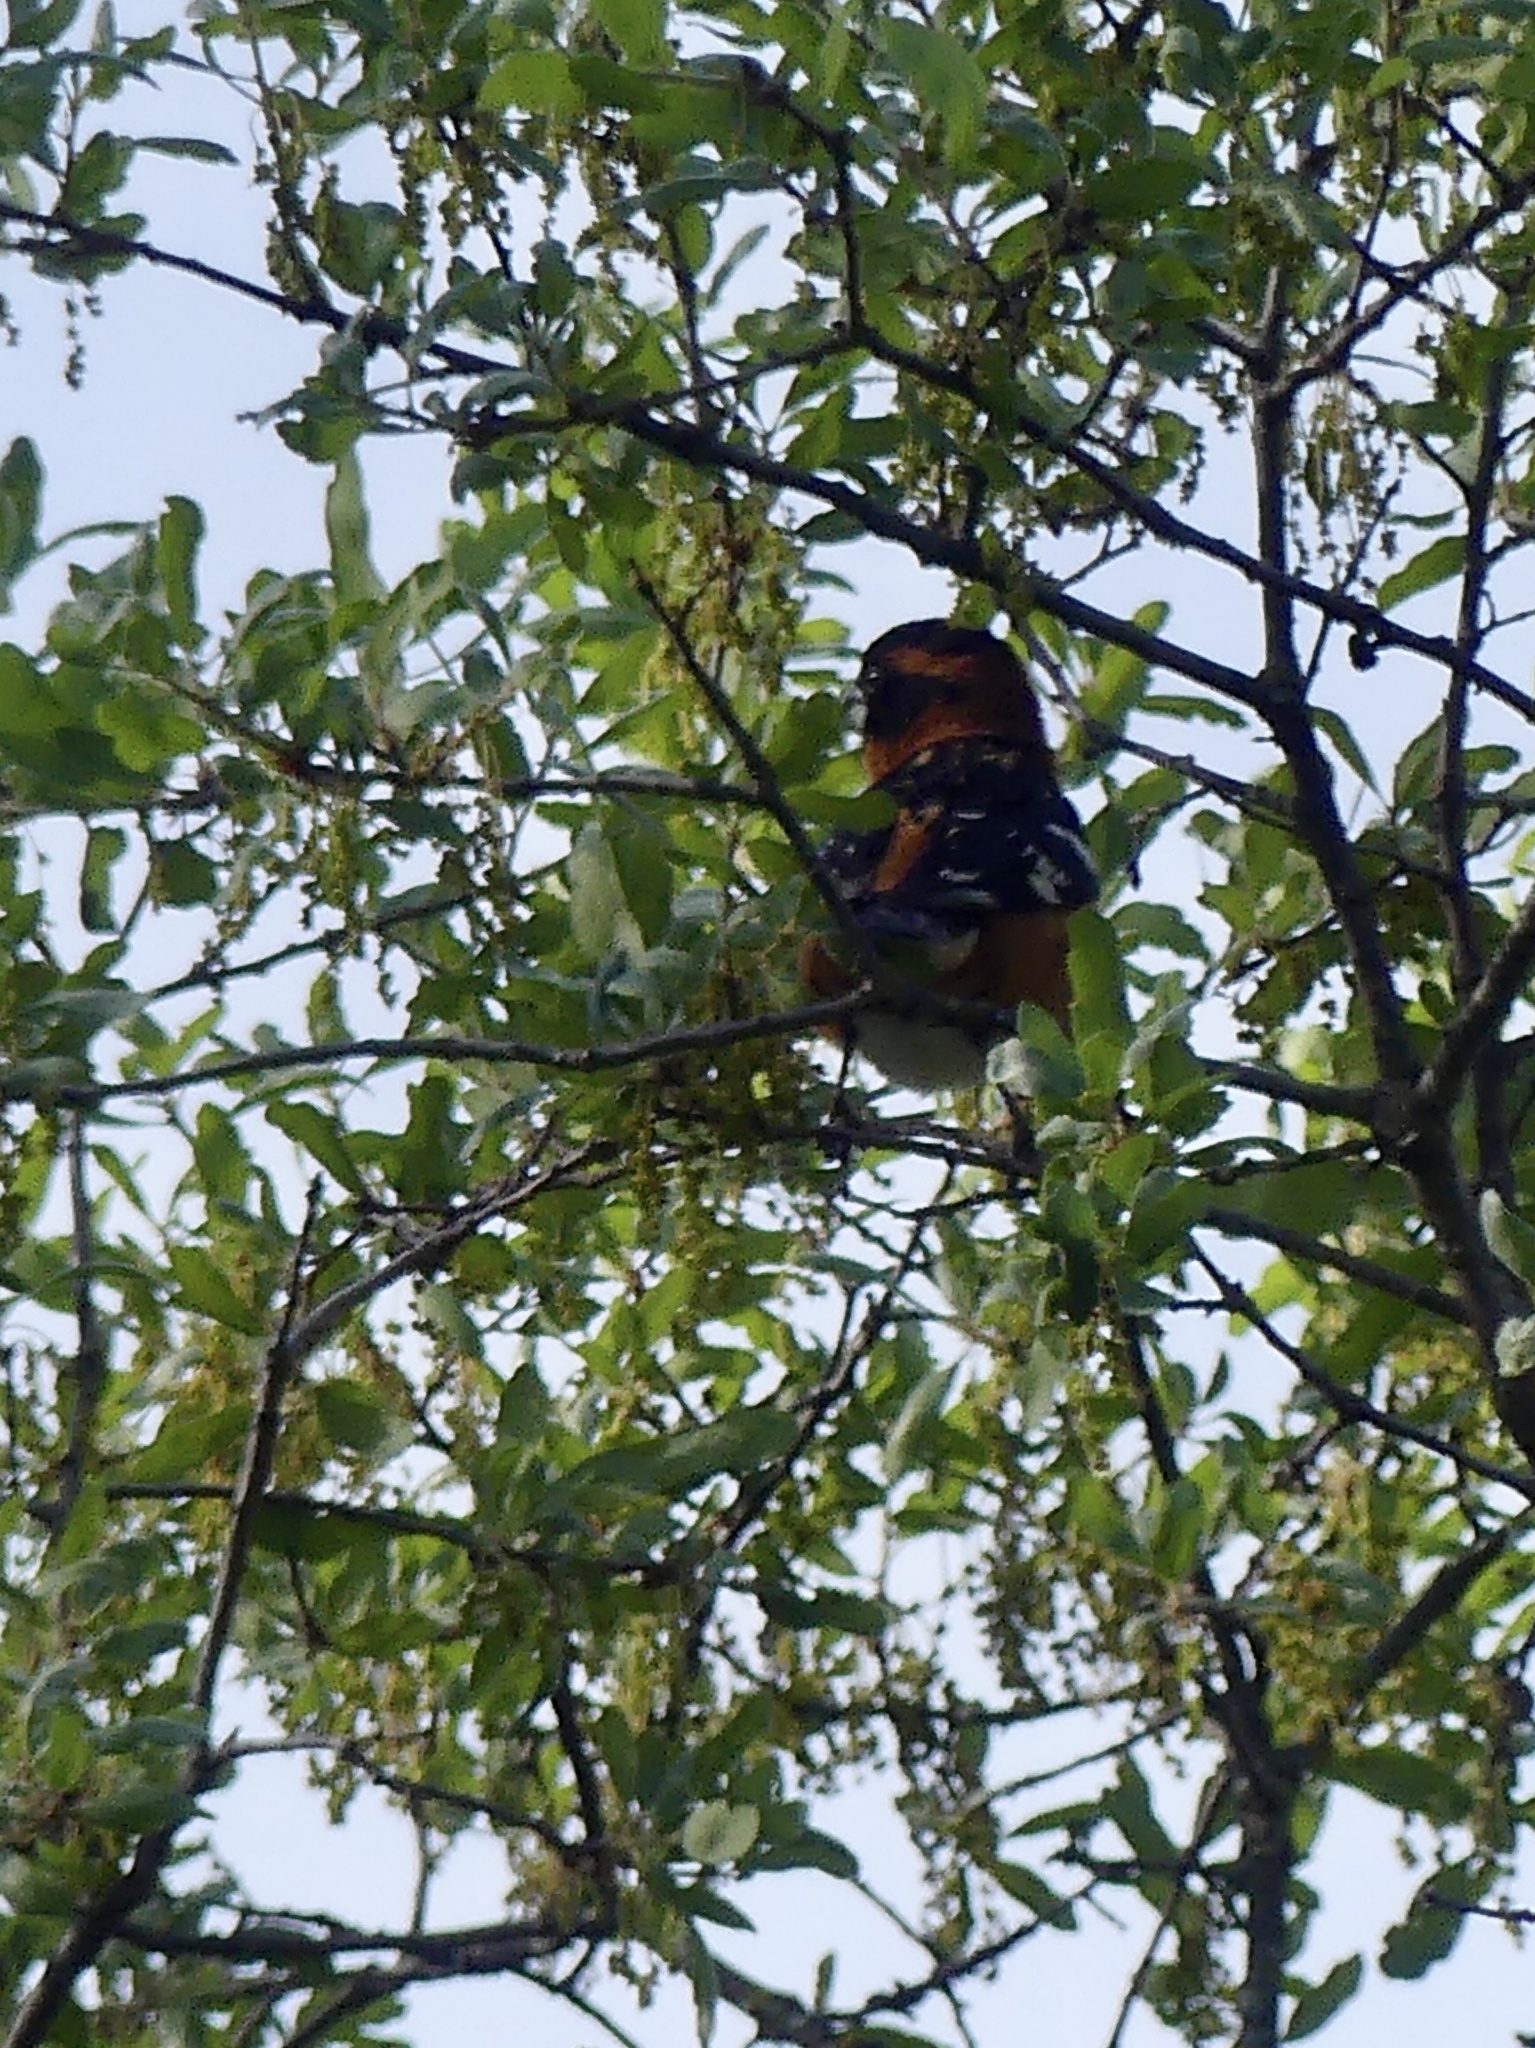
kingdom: Animalia
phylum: Chordata
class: Aves
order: Passeriformes
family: Cardinalidae
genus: Pheucticus
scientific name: Pheucticus melanocephalus
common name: Black-headed grosbeak
